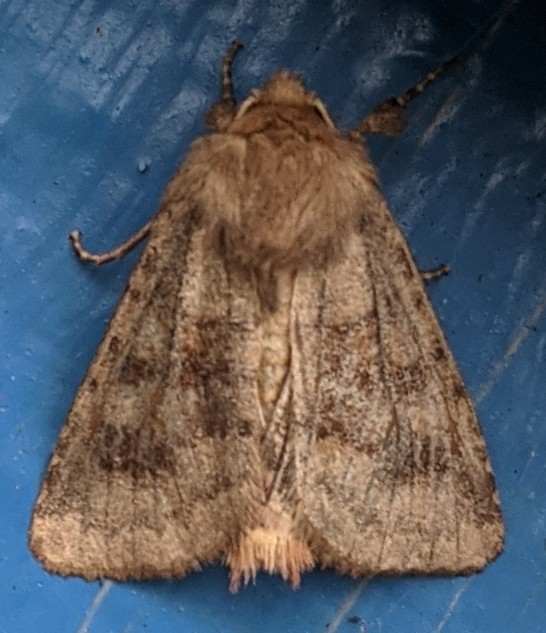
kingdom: Animalia
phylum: Arthropoda
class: Insecta
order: Lepidoptera
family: Noctuidae
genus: Nephelodes
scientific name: Nephelodes minians
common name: Bronzed cutworm
